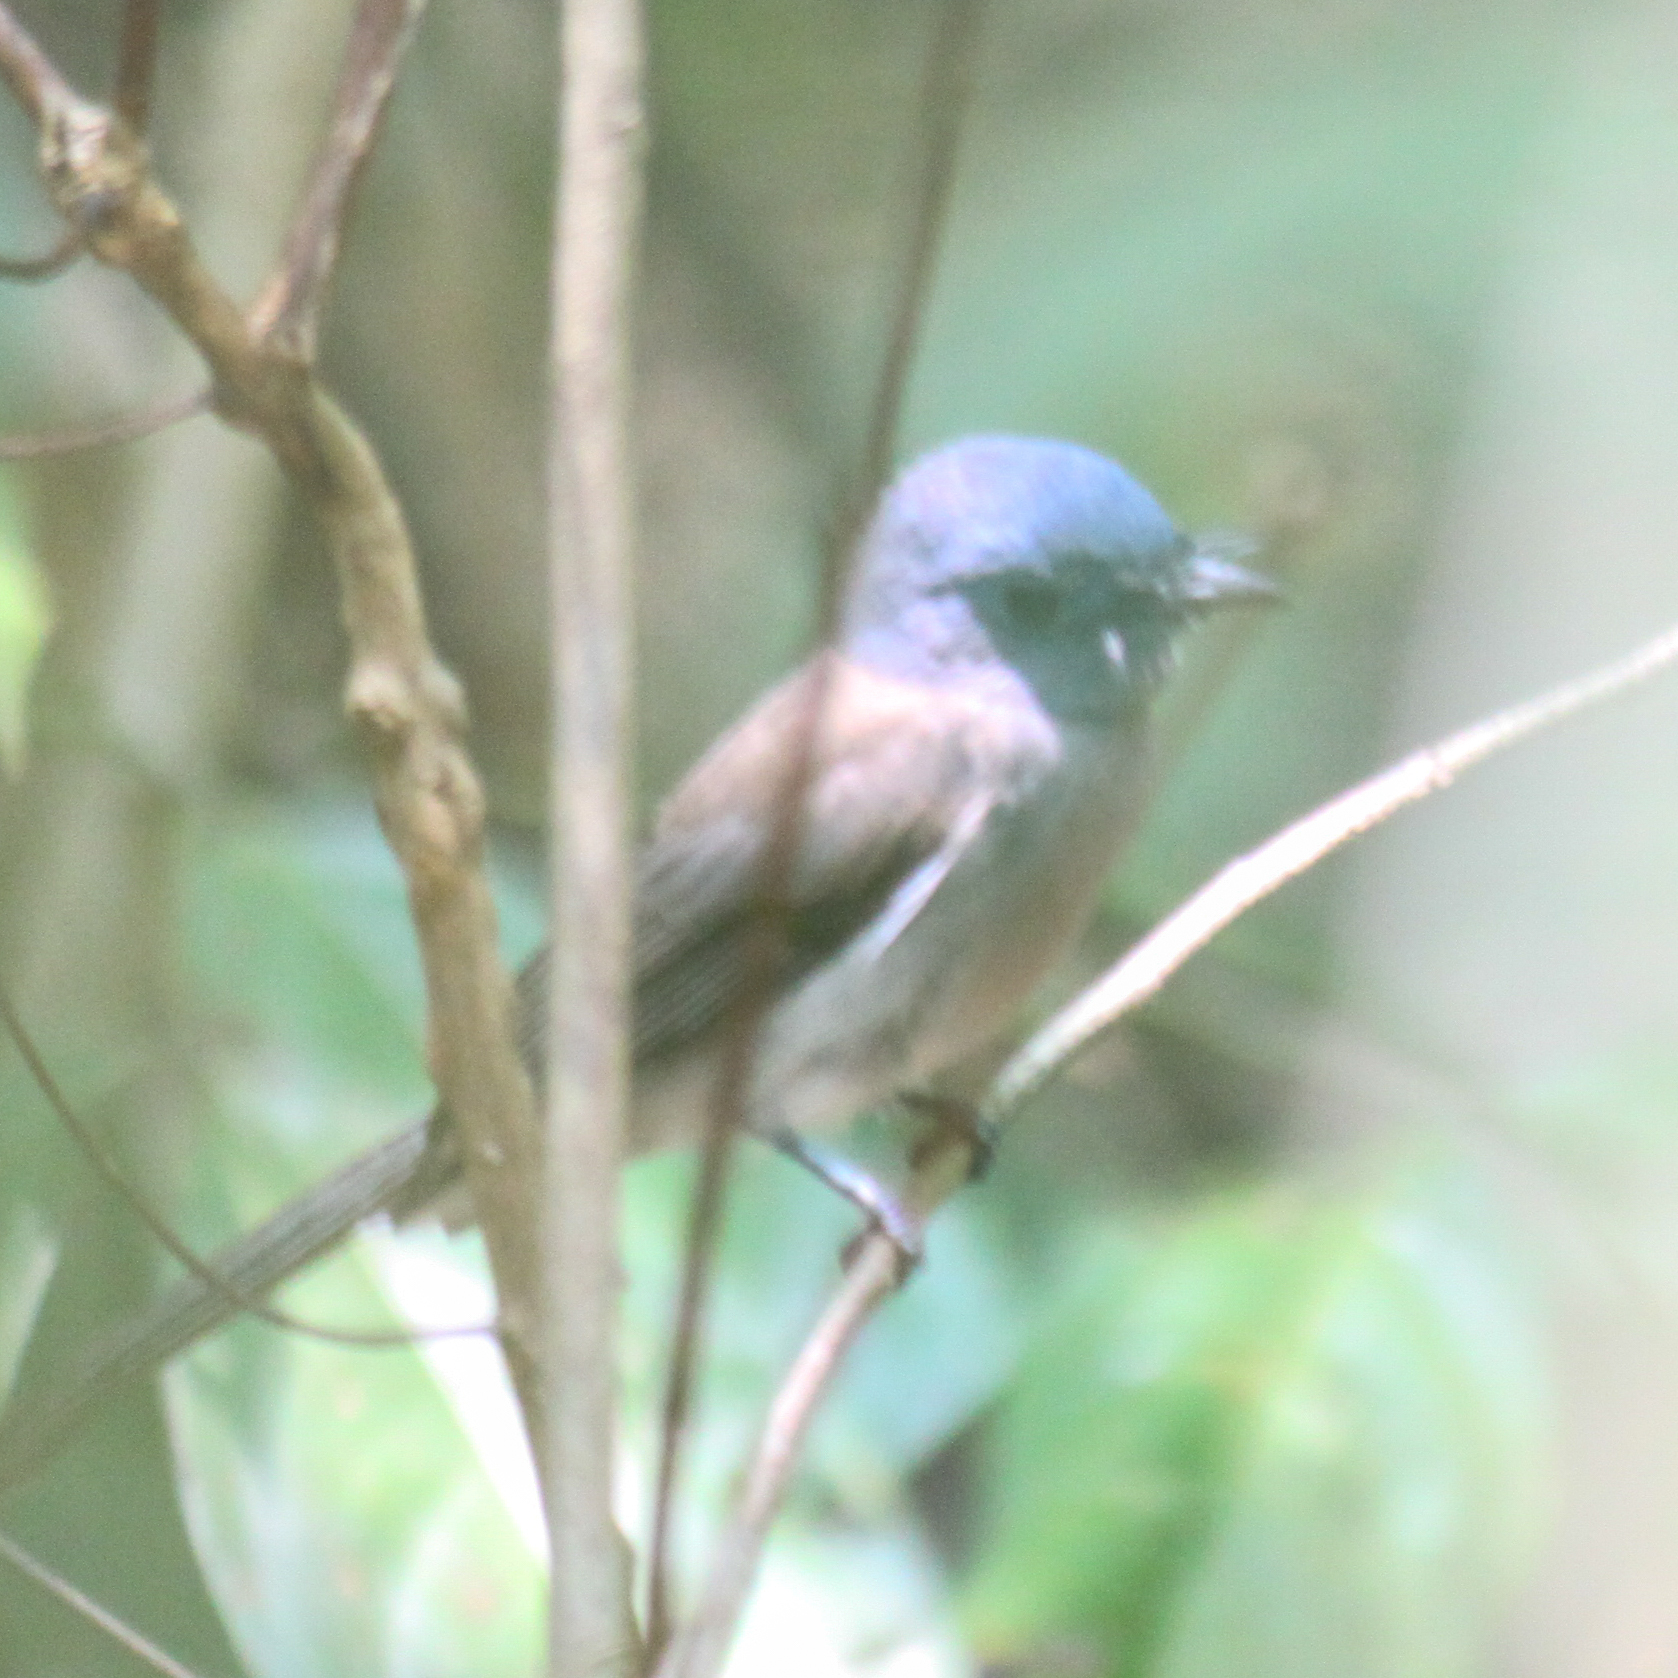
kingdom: Animalia
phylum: Chordata
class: Aves
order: Passeriformes
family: Monarchidae
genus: Hypothymis
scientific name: Hypothymis azurea
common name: Black-naped monarch
